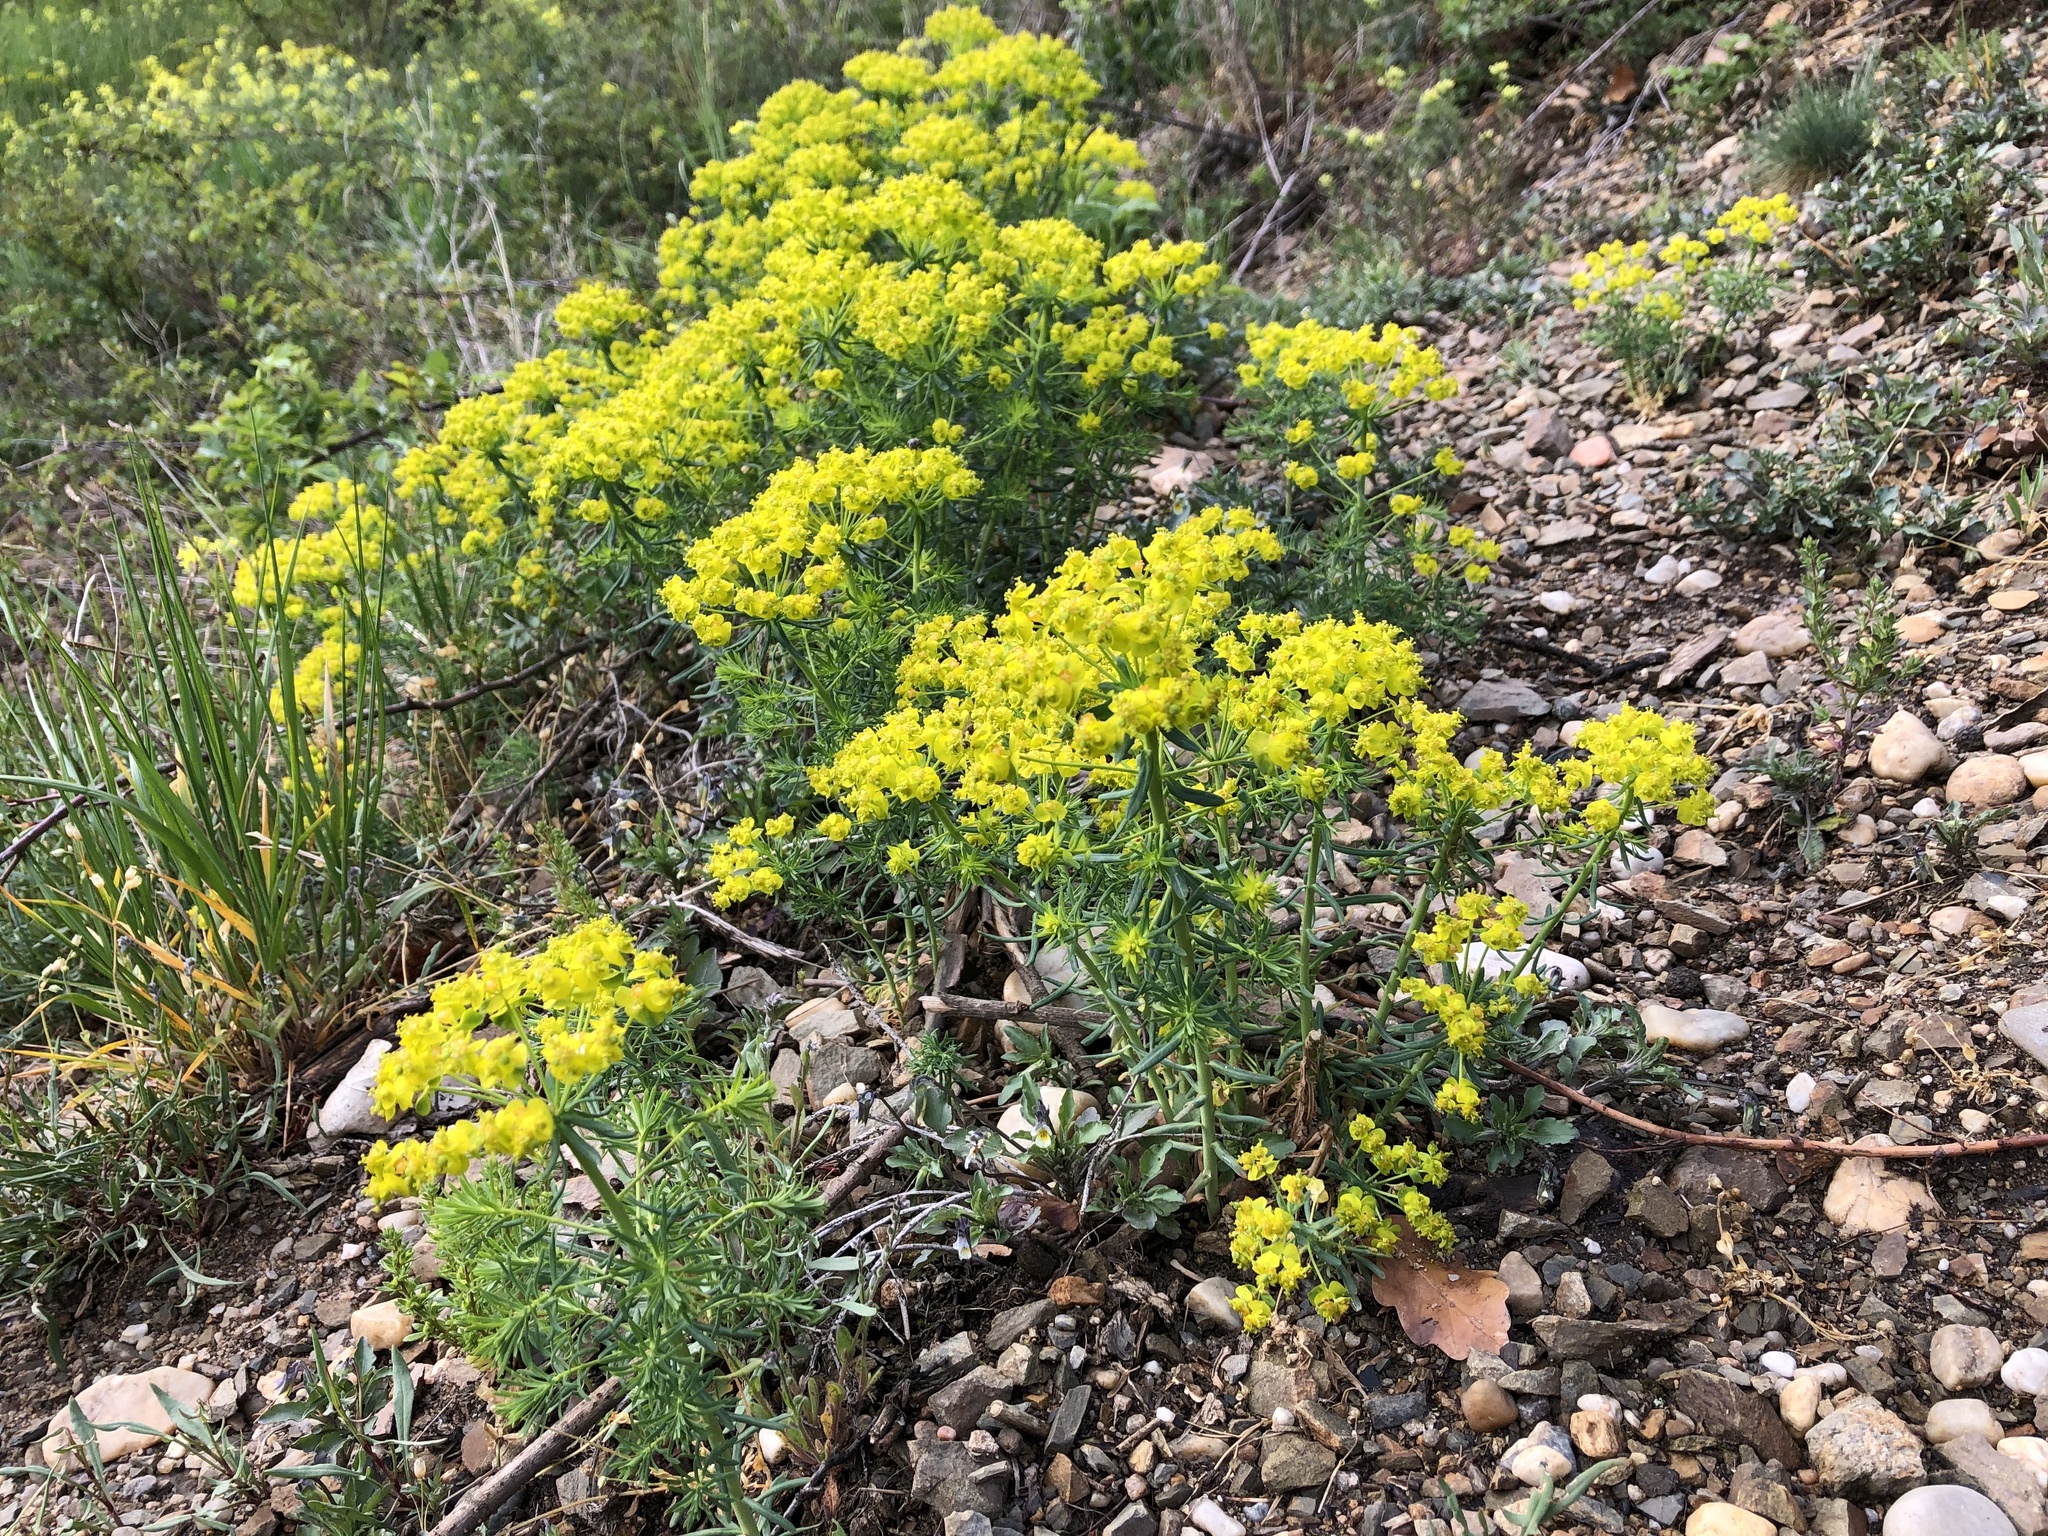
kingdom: Plantae
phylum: Tracheophyta
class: Magnoliopsida
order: Malpighiales
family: Euphorbiaceae
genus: Euphorbia
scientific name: Euphorbia cyparissias
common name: Cypress spurge
